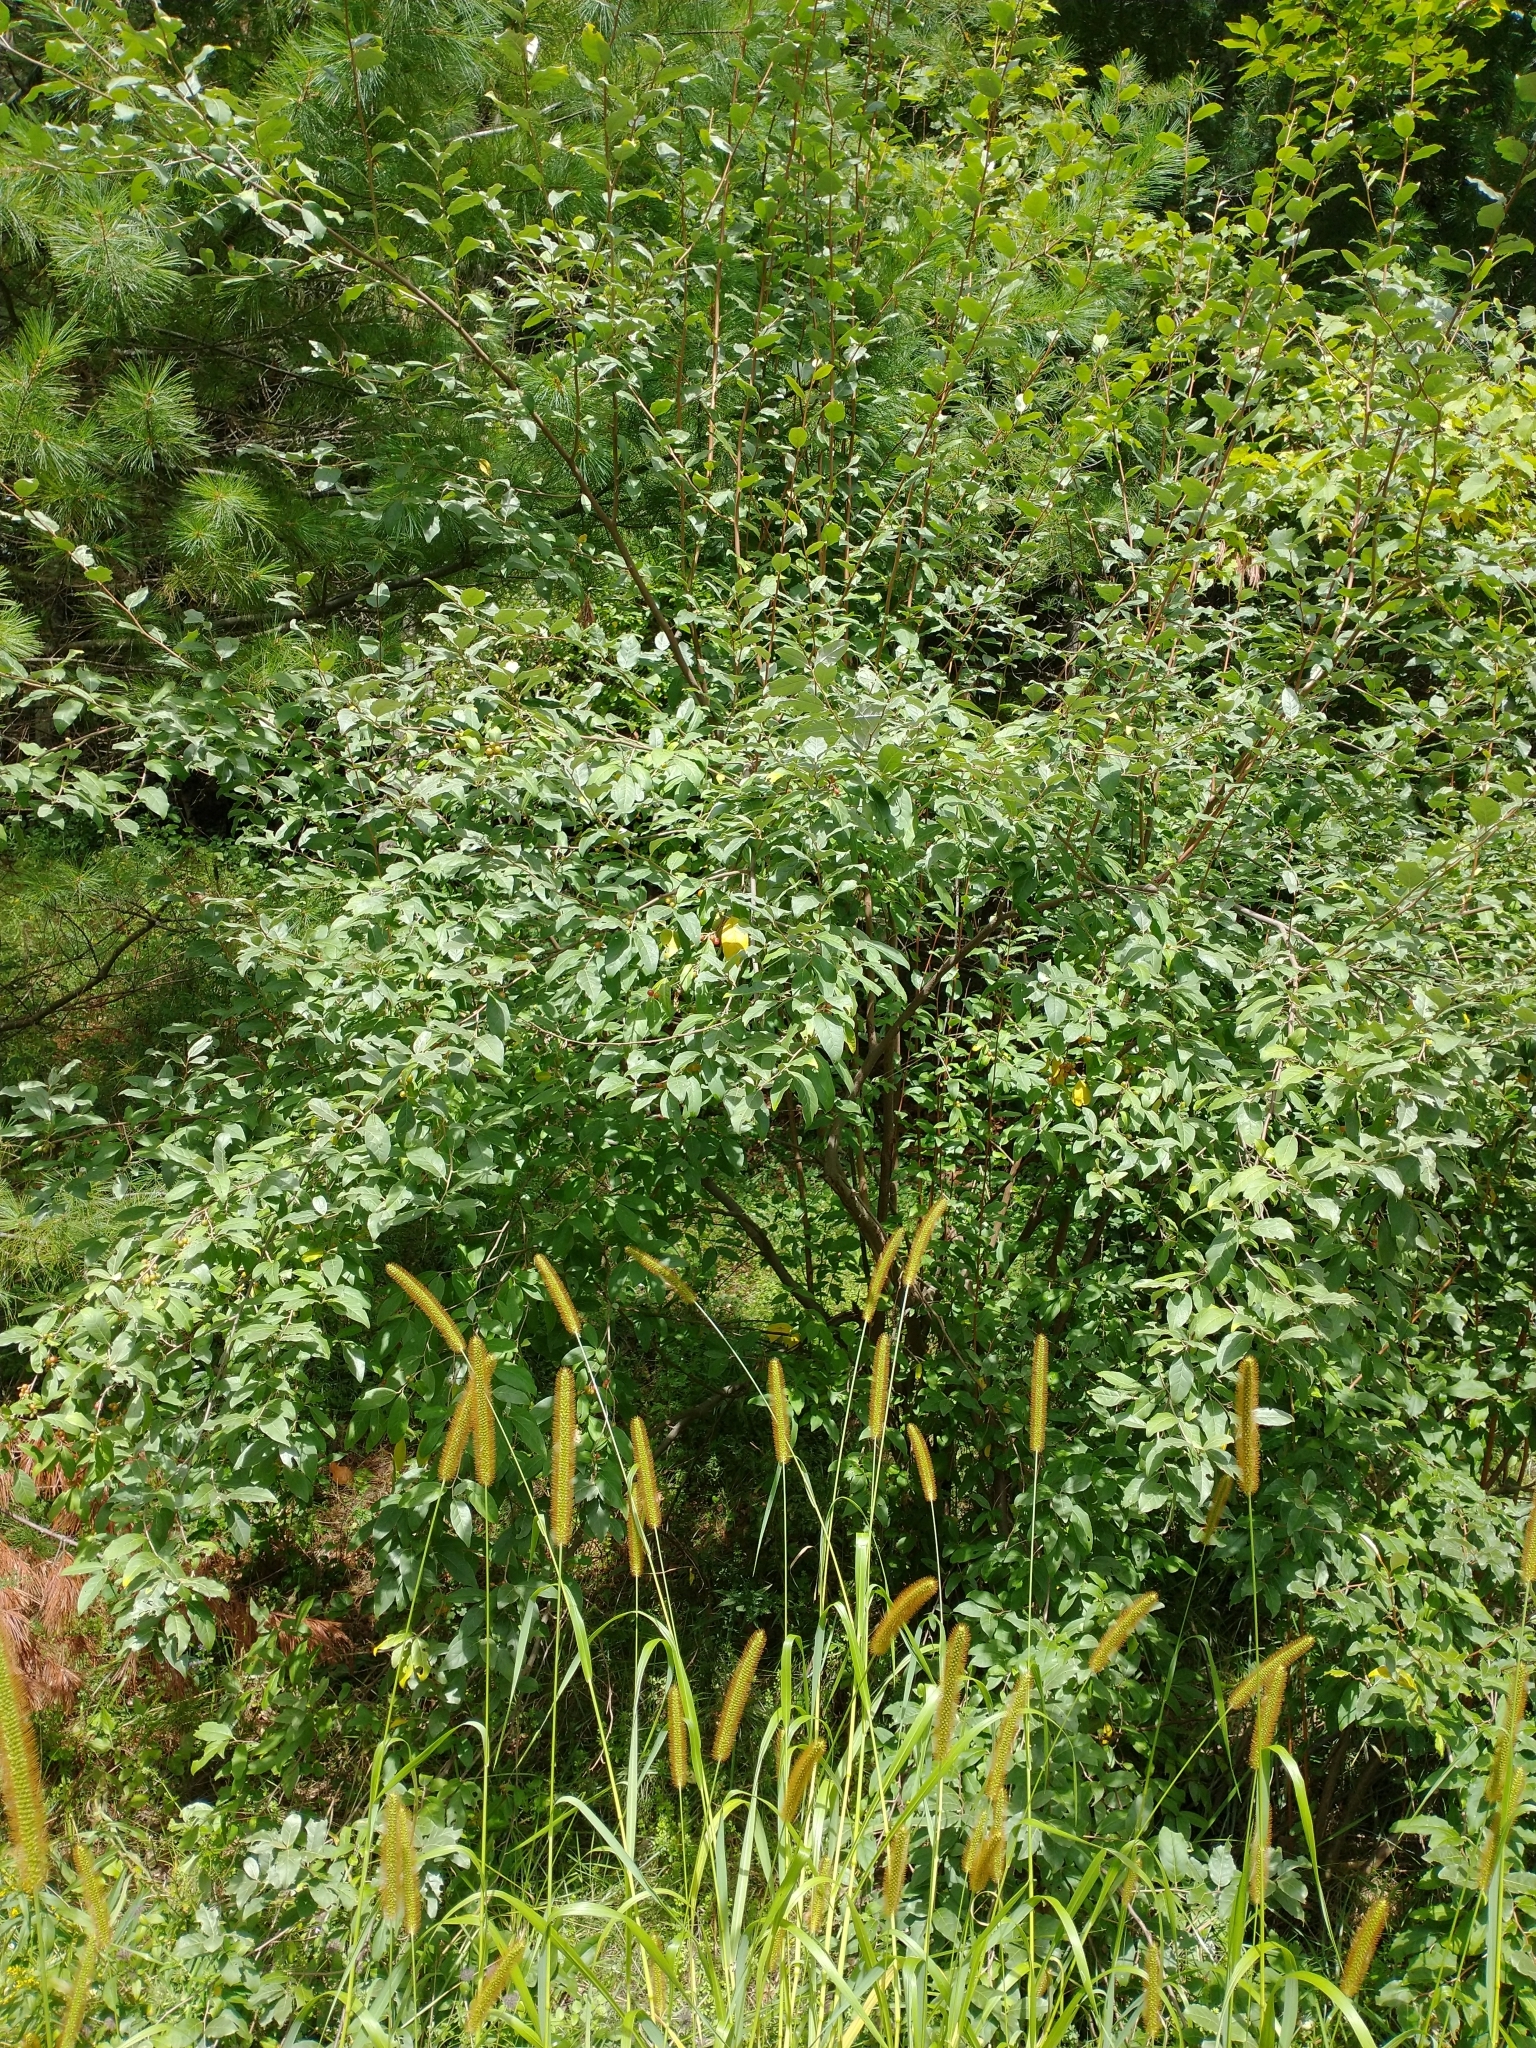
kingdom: Plantae
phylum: Tracheophyta
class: Magnoliopsida
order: Rosales
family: Elaeagnaceae
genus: Elaeagnus
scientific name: Elaeagnus umbellata
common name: Autumn olive
